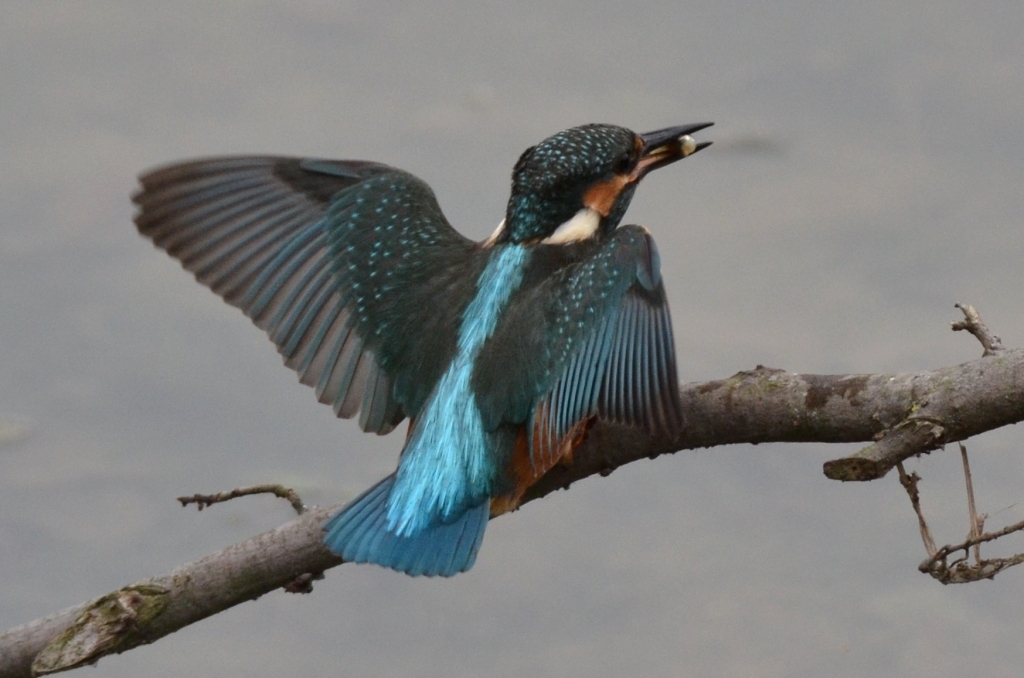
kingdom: Animalia
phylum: Chordata
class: Aves
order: Coraciiformes
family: Alcedinidae
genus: Alcedo
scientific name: Alcedo atthis
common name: Common kingfisher
